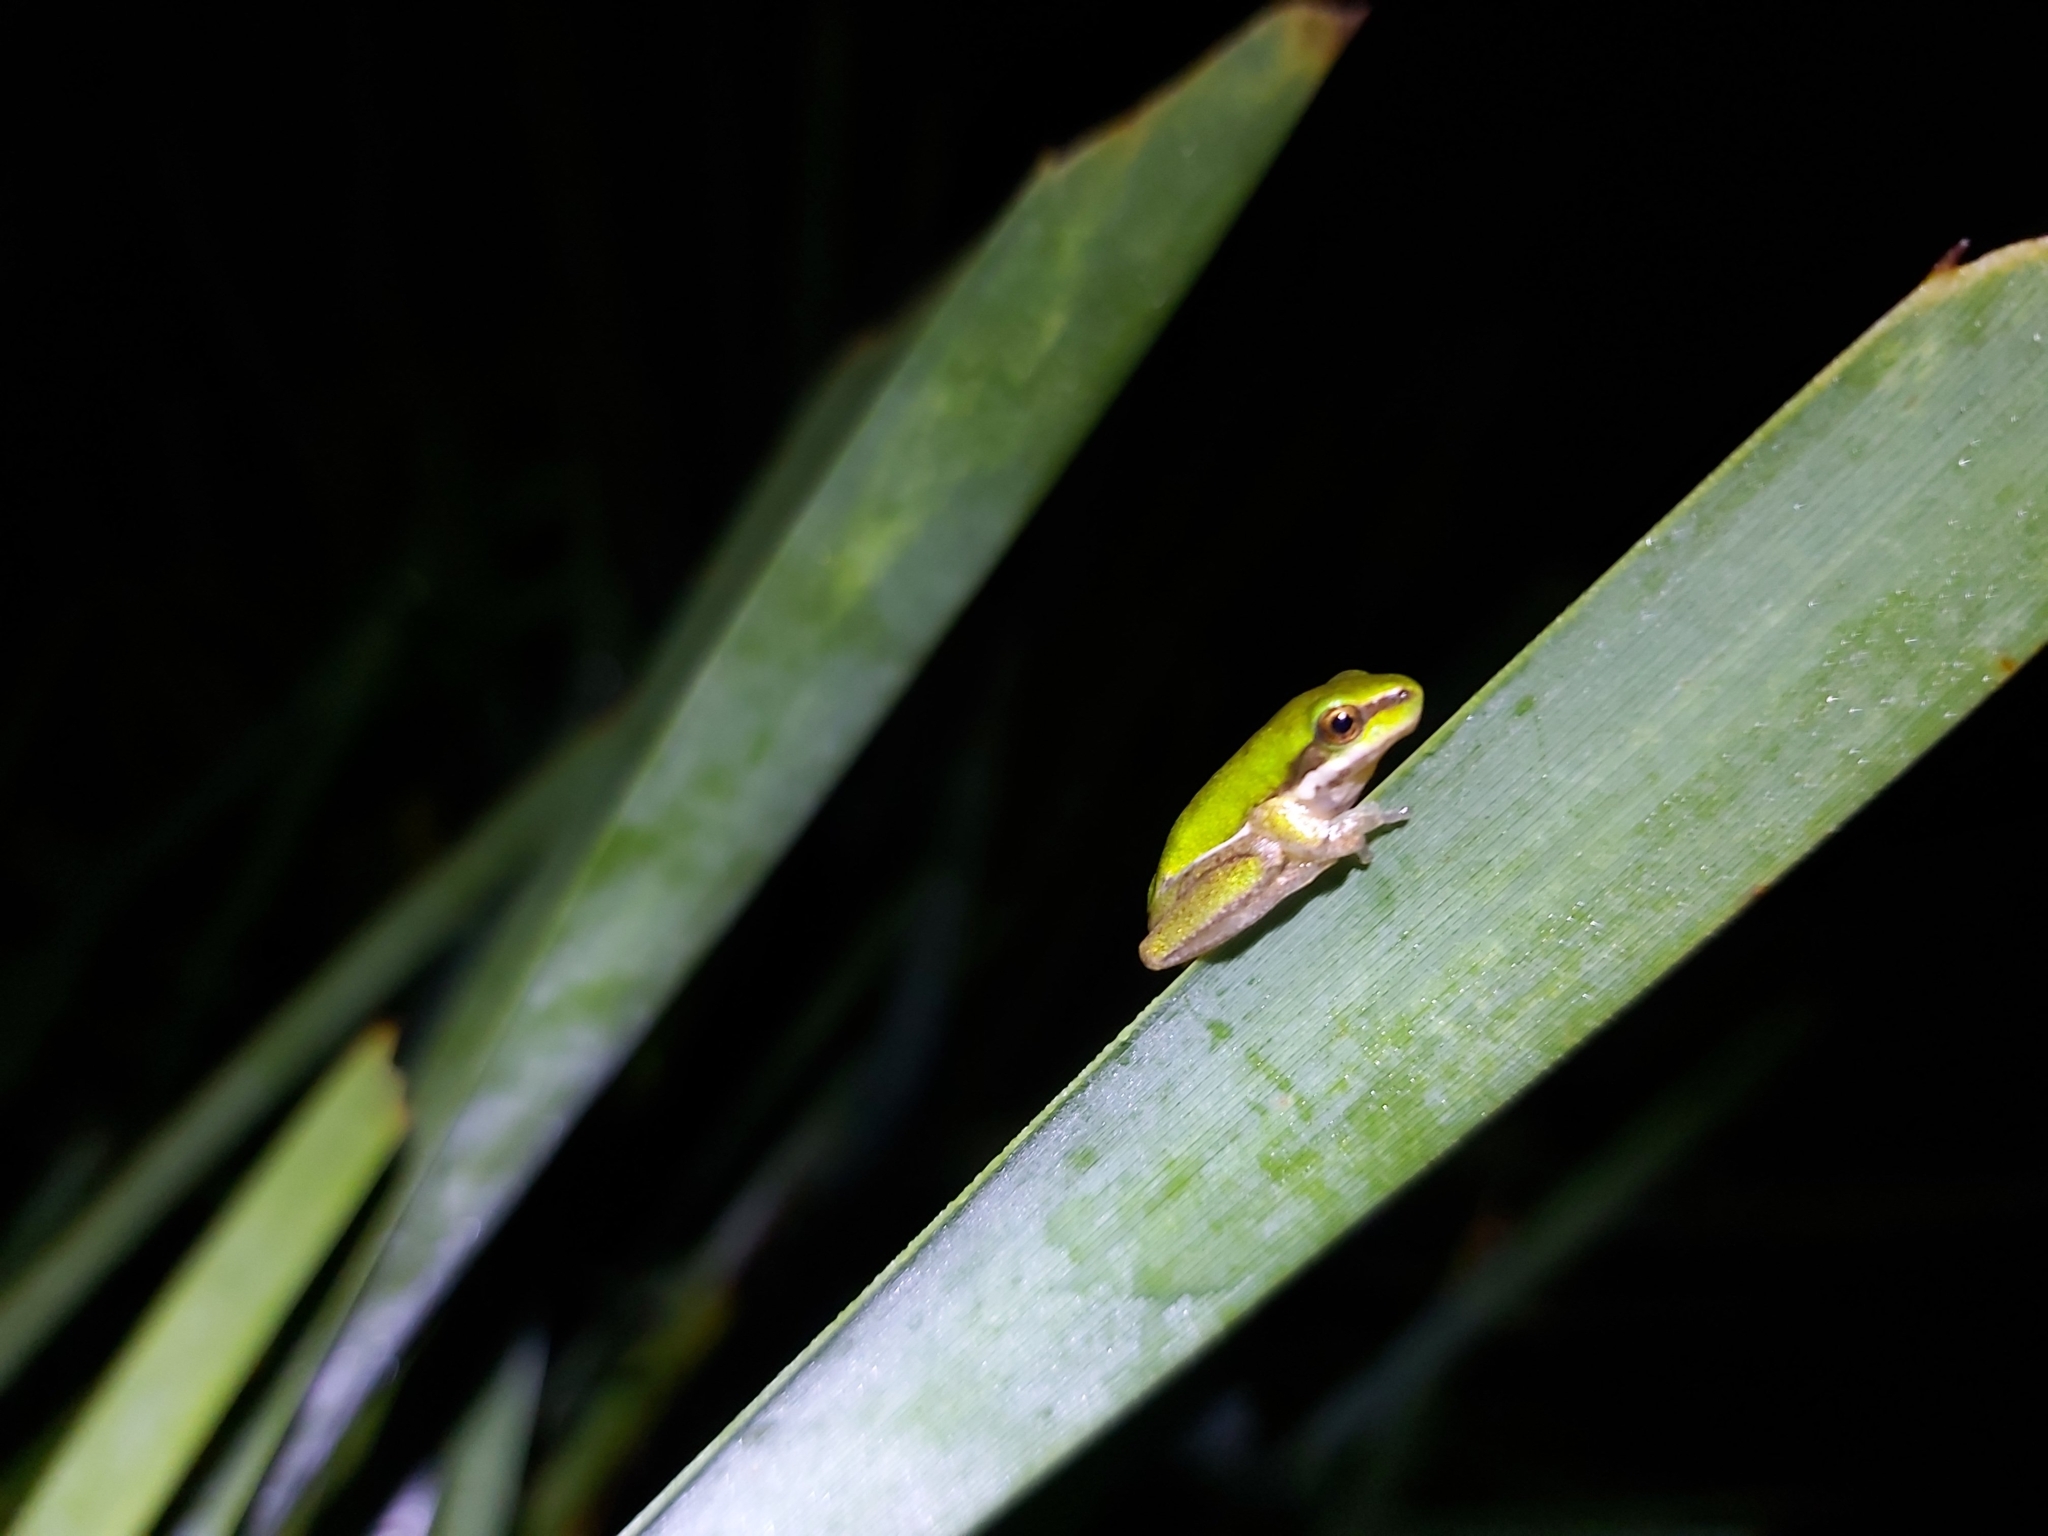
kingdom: Animalia
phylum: Chordata
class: Amphibia
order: Anura
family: Pelodryadidae
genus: Litoria
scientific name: Litoria fallax
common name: Eastern dwarf treefrog
